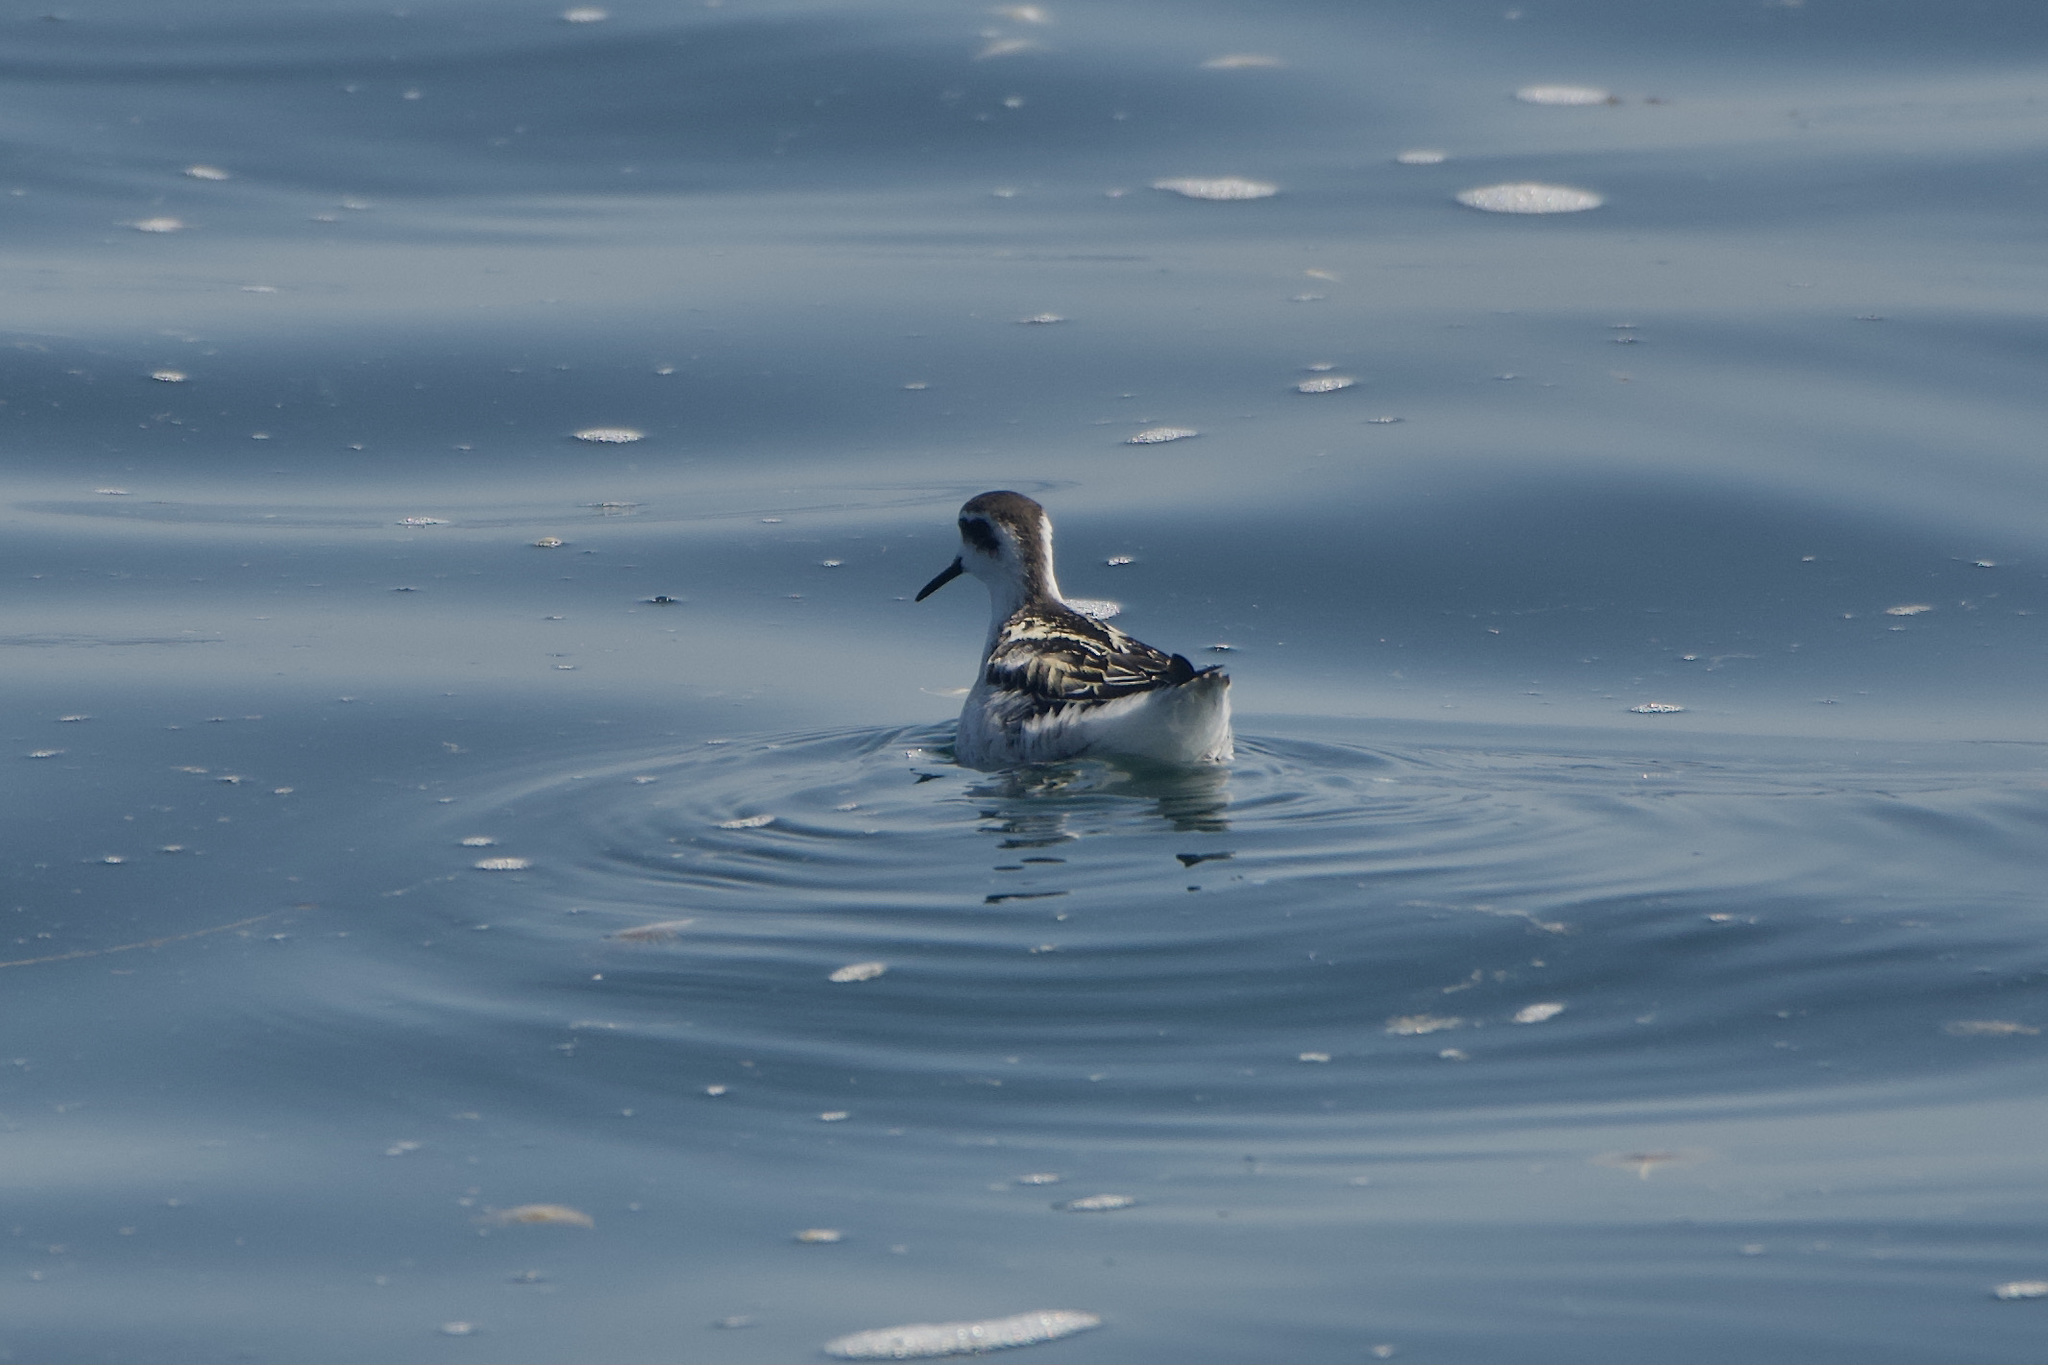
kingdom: Animalia
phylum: Chordata
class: Aves
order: Charadriiformes
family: Scolopacidae
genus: Phalaropus
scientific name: Phalaropus lobatus
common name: Red-necked phalarope
